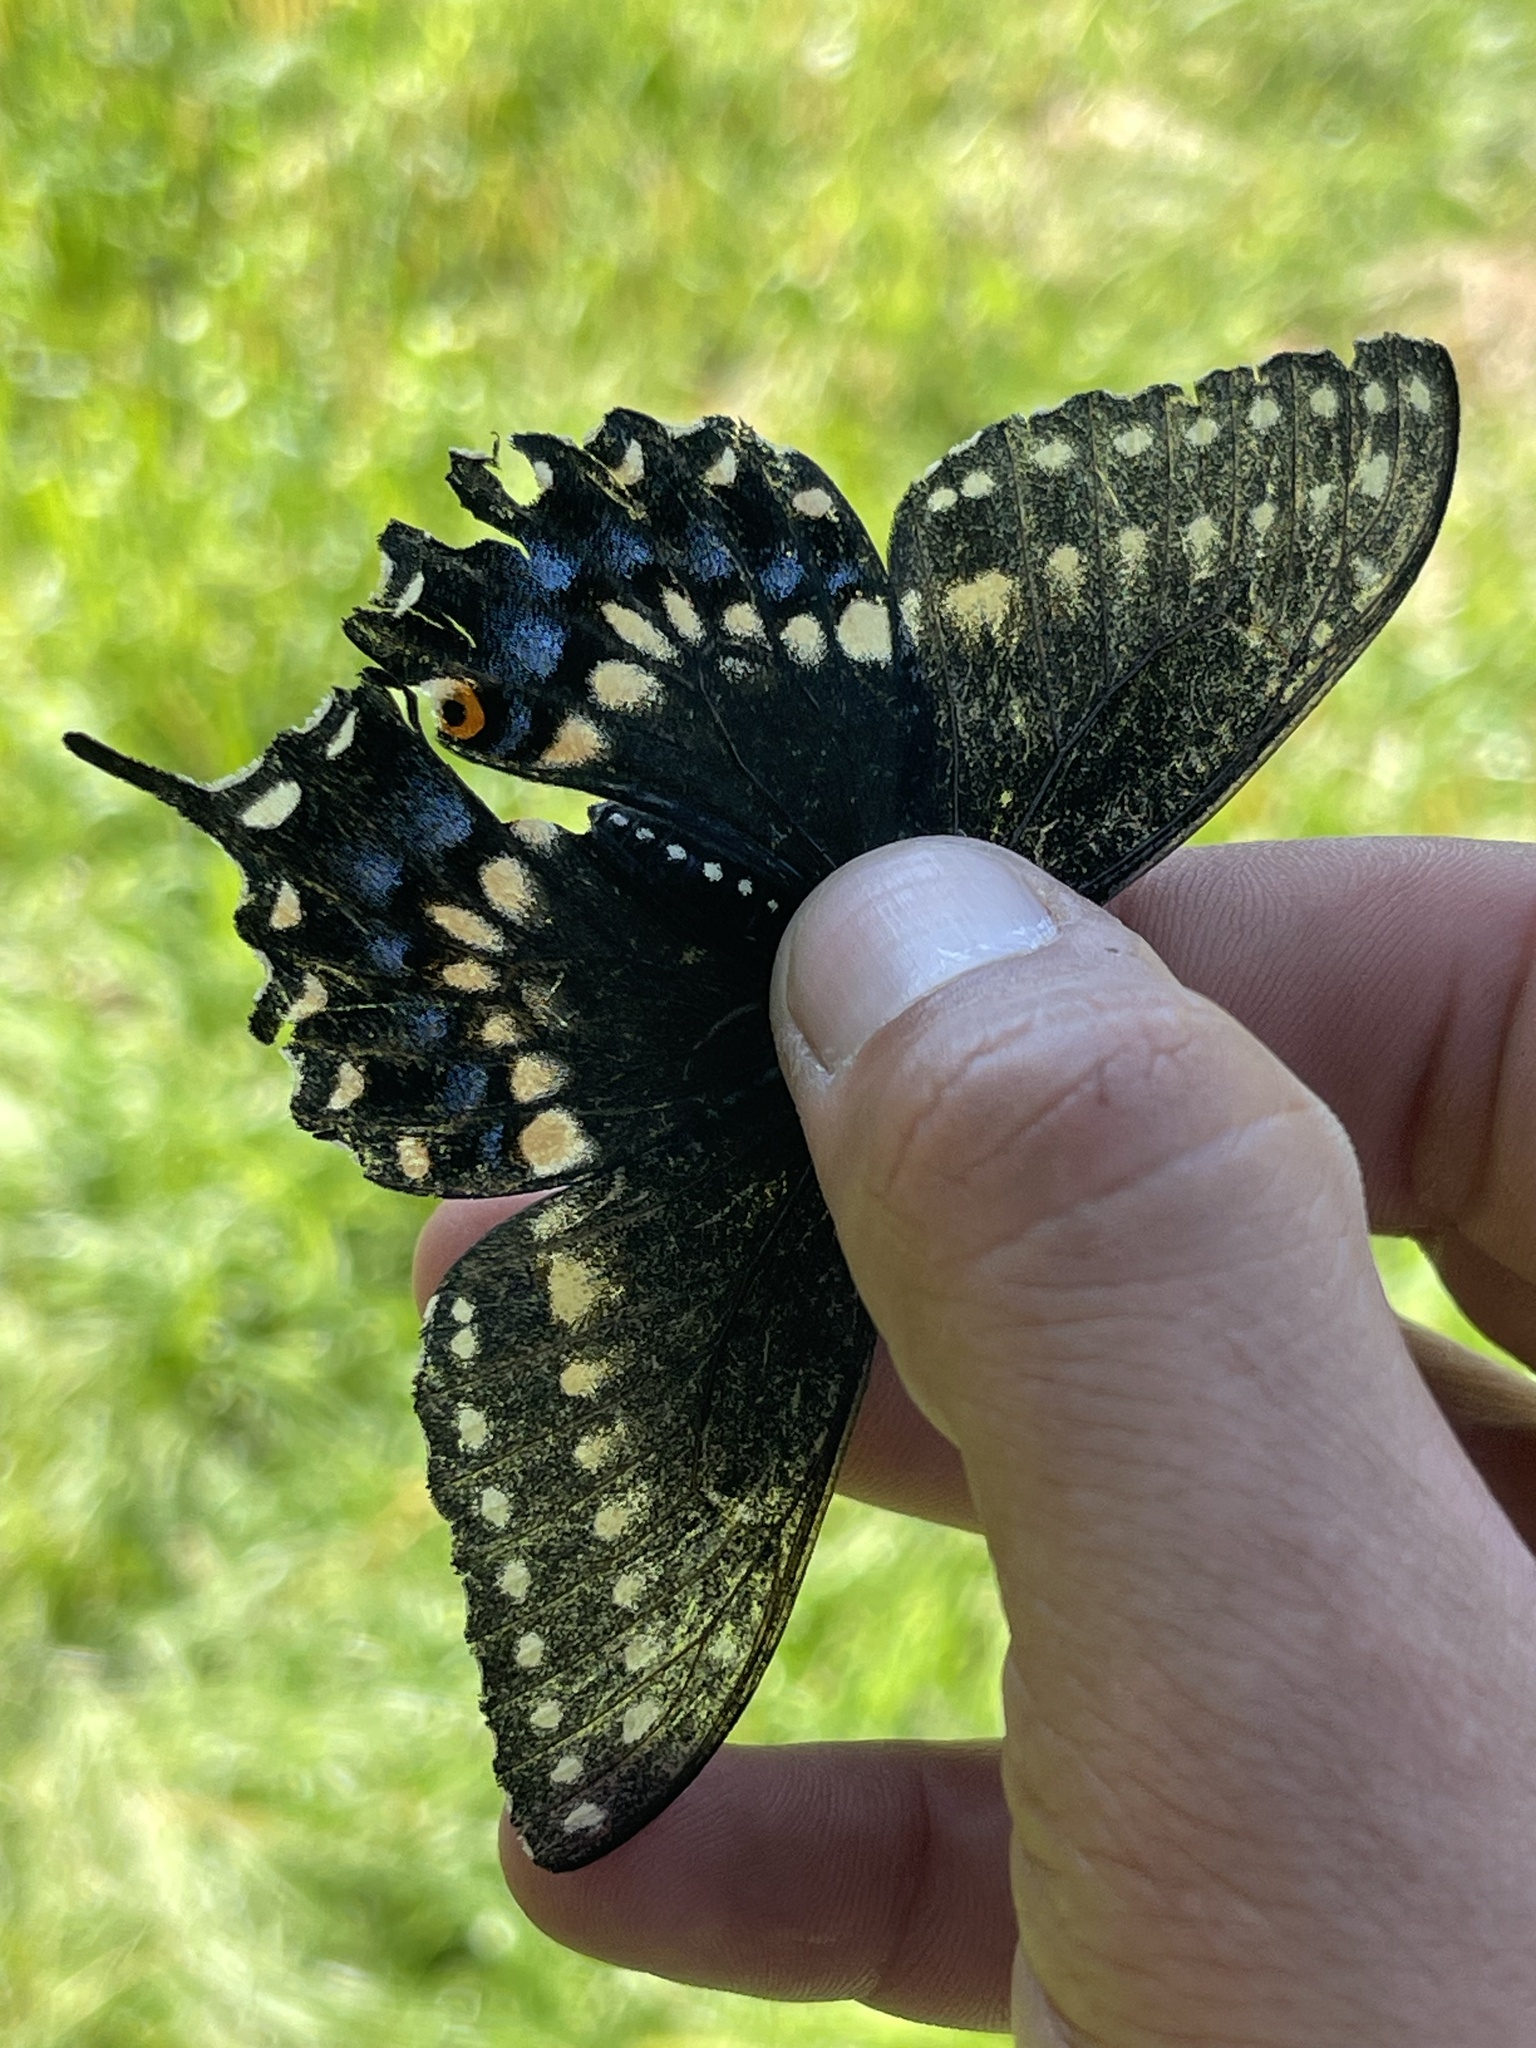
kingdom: Animalia
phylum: Arthropoda
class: Insecta
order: Lepidoptera
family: Papilionidae
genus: Papilio
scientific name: Papilio polyxenes
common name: Black swallowtail
